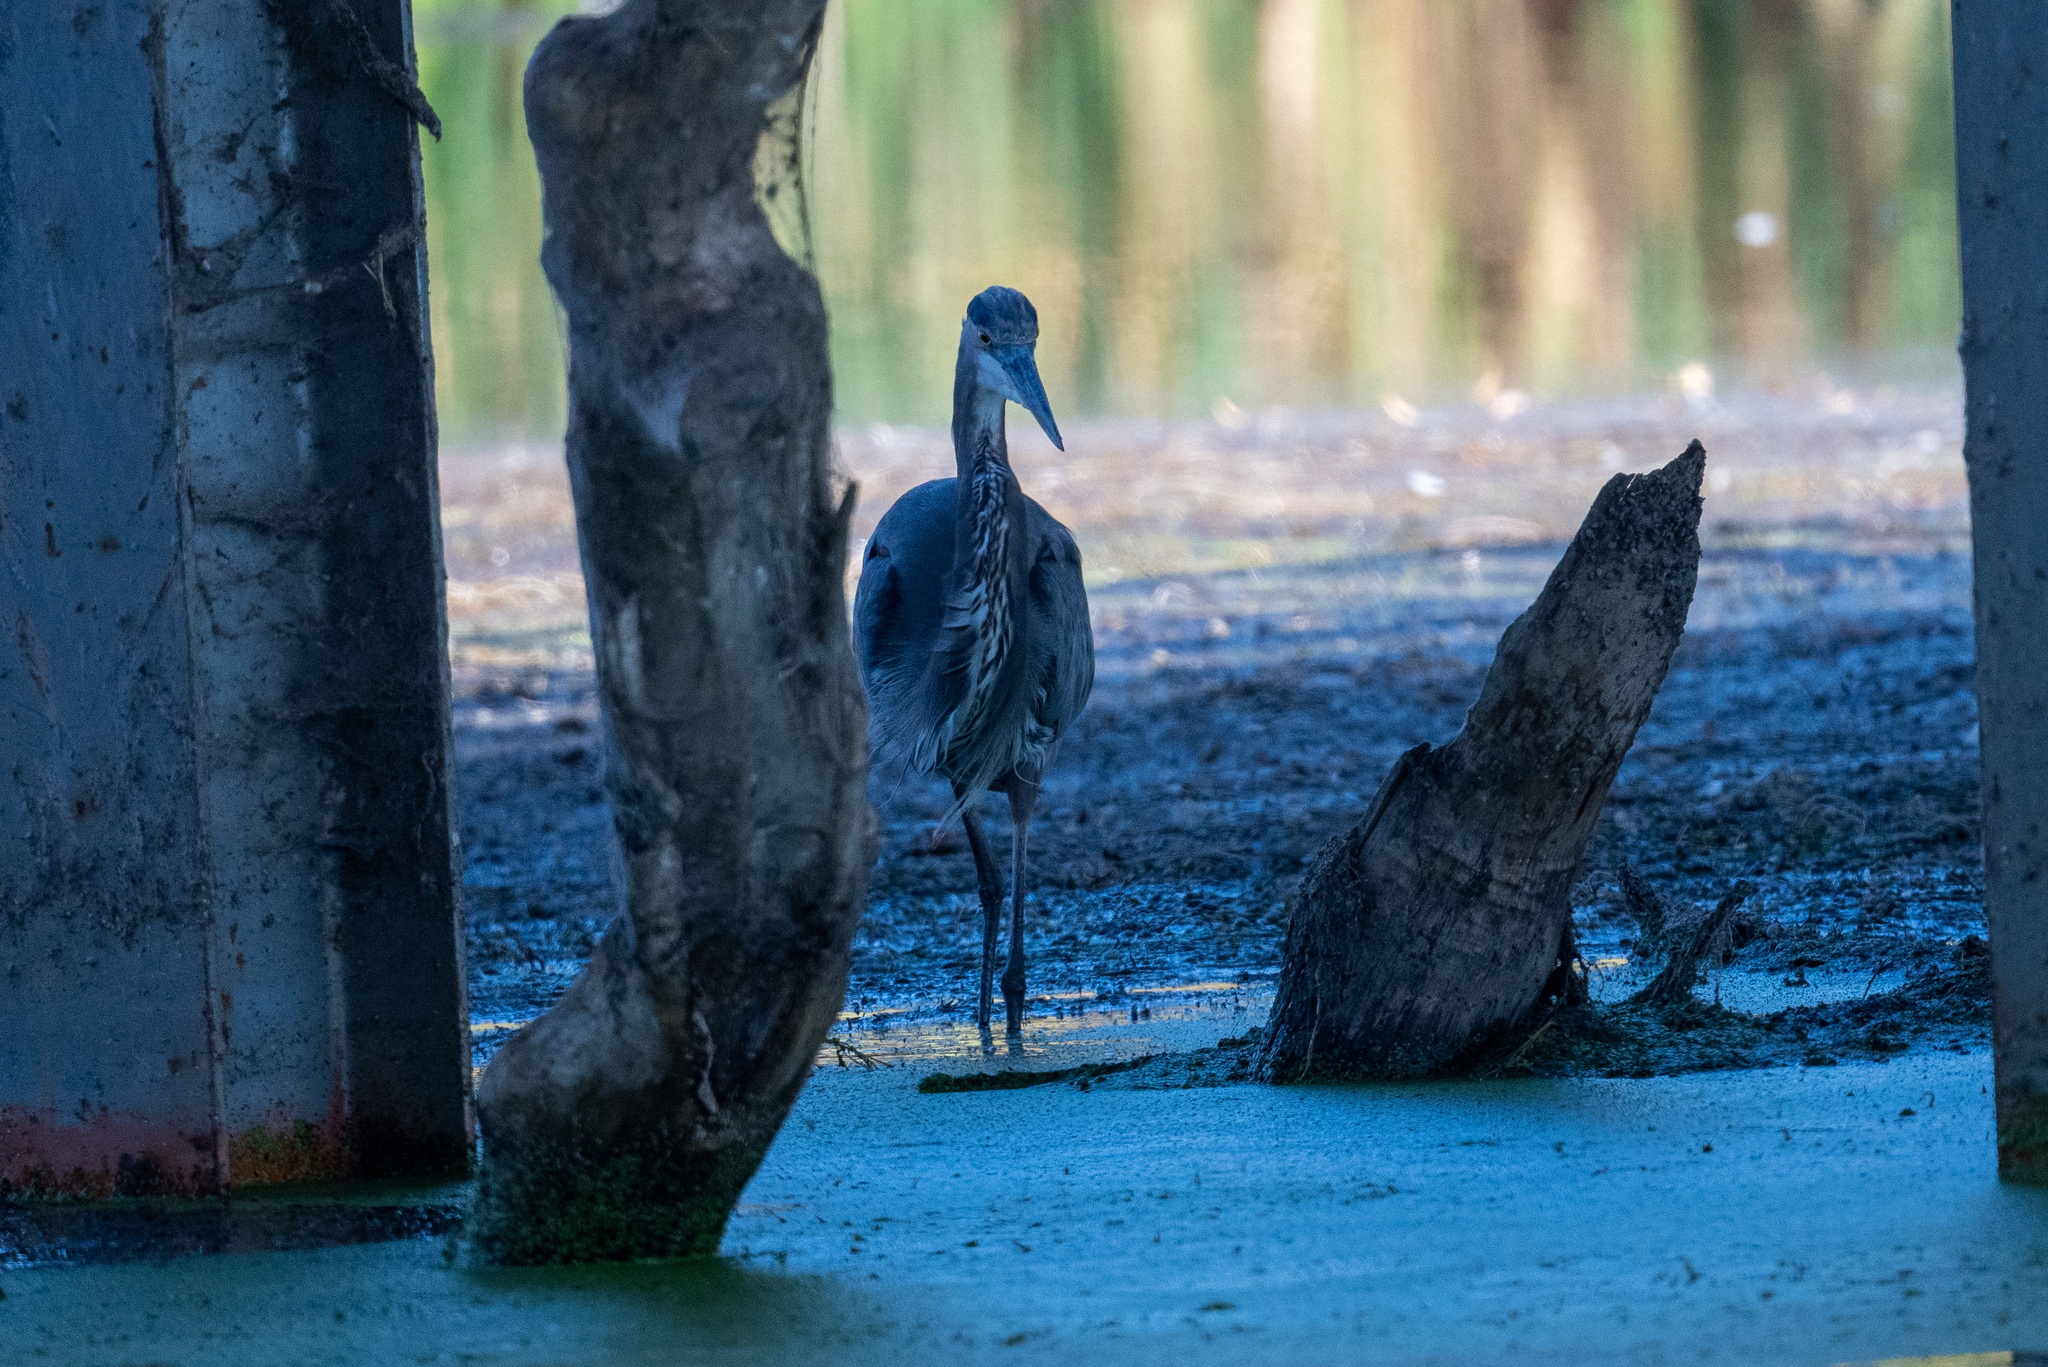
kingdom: Animalia
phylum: Chordata
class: Aves
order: Pelecaniformes
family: Ardeidae
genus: Ardea
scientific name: Ardea herodias
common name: Great blue heron
